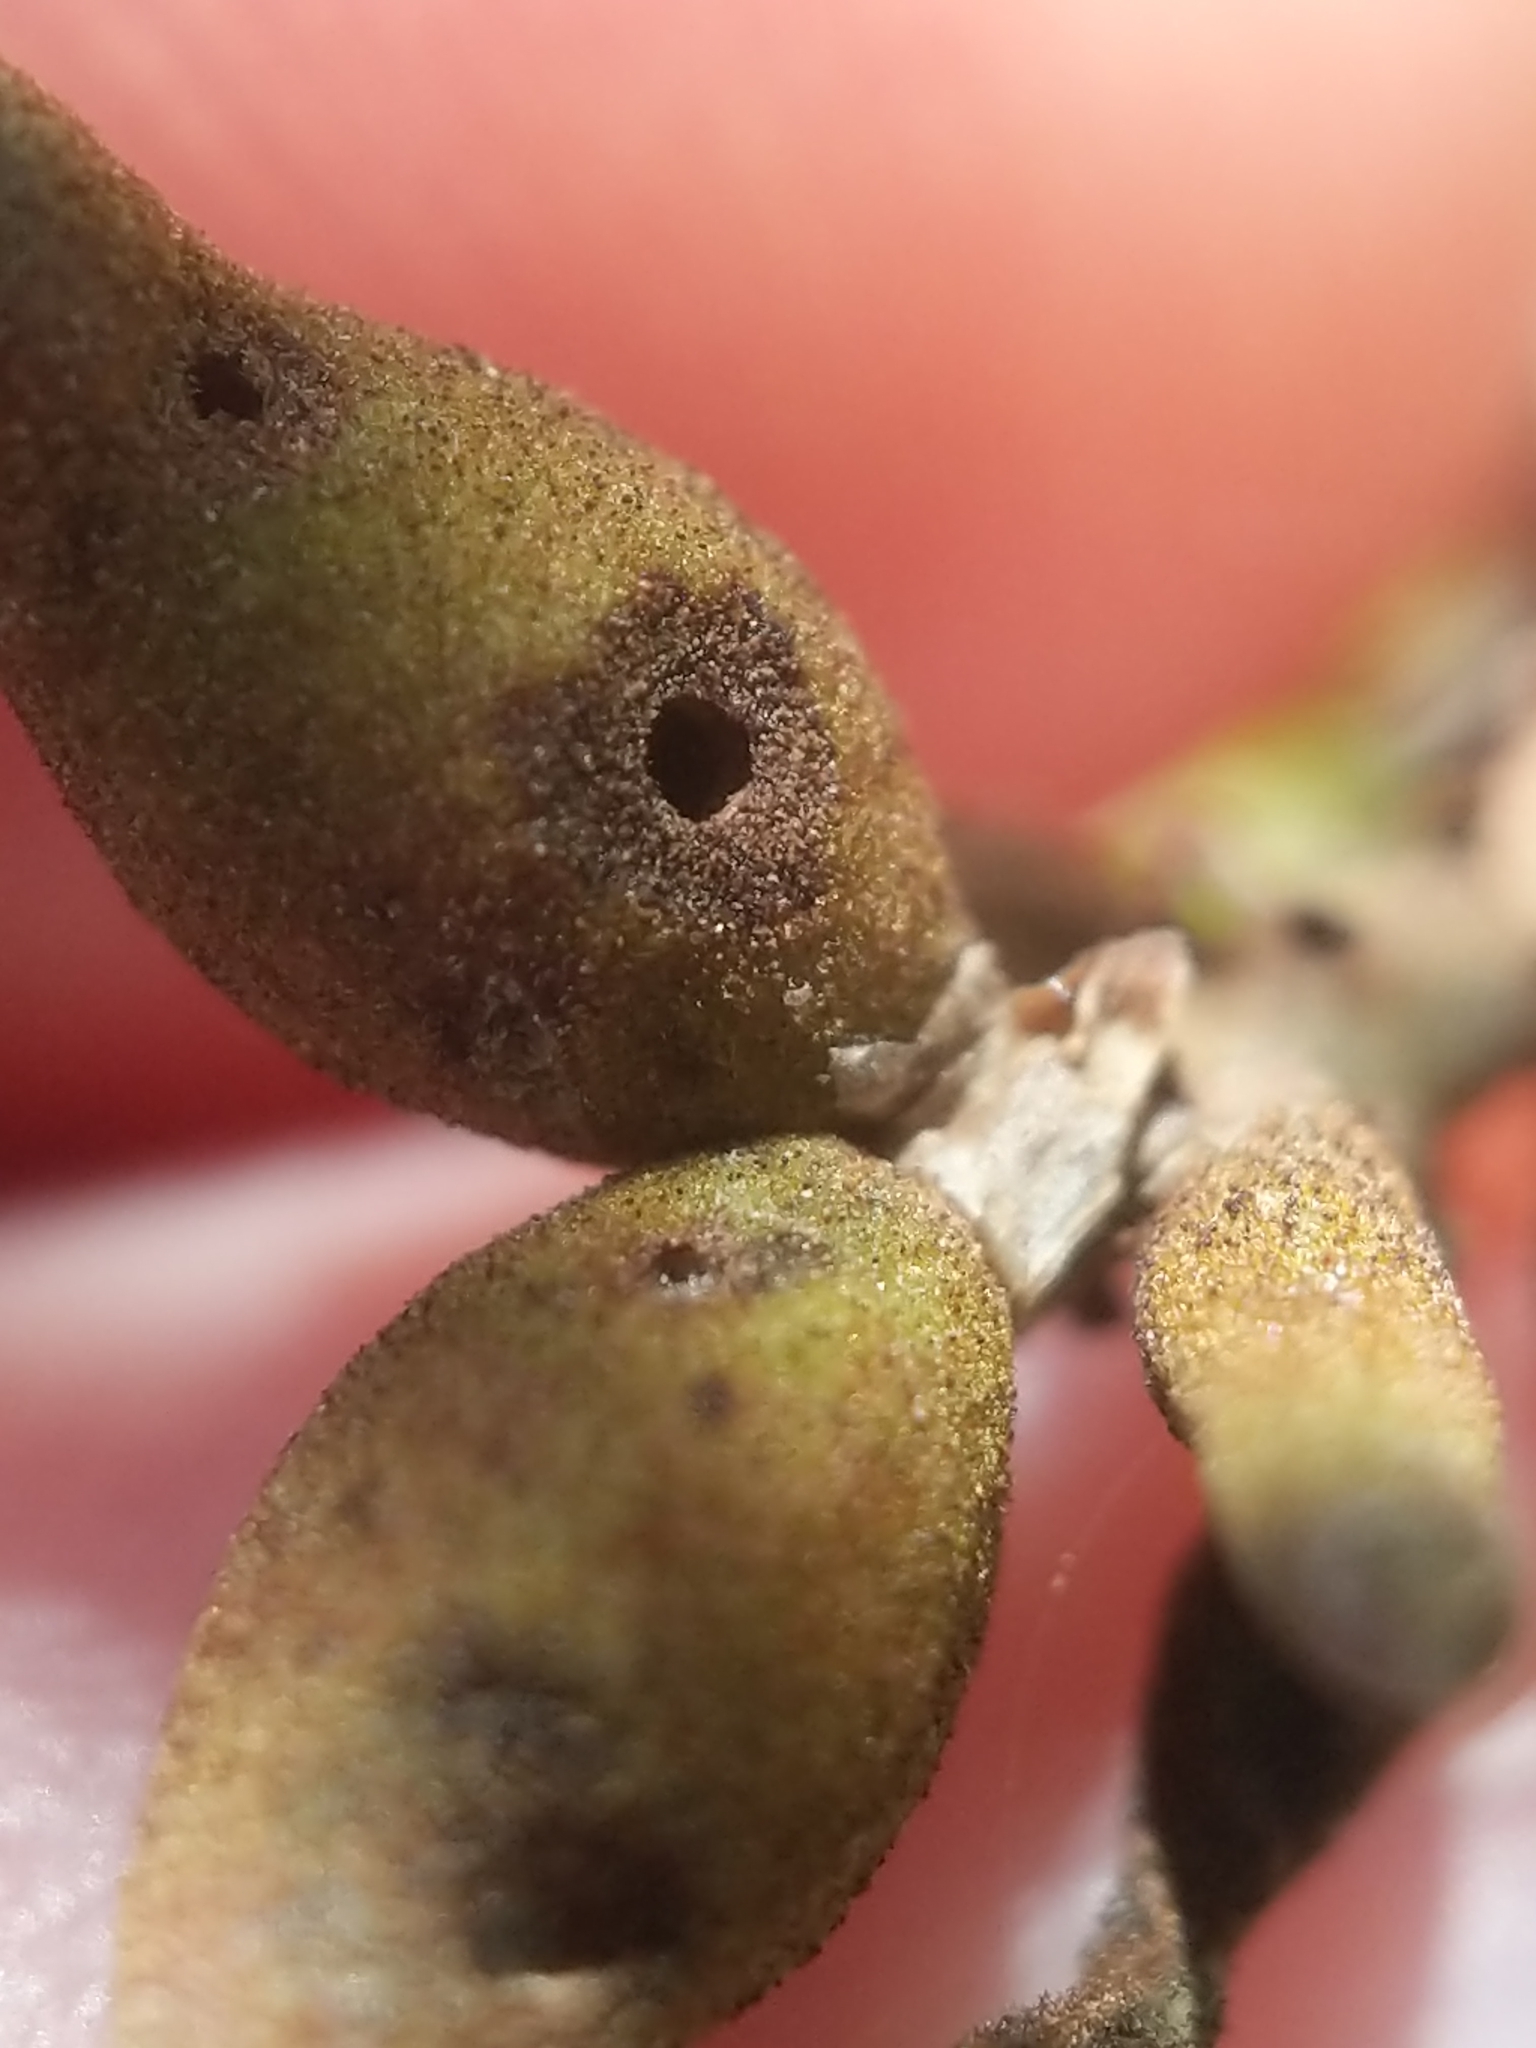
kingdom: Animalia
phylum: Arthropoda
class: Insecta
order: Coleoptera
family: Chrysomelidae
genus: Merobruchus
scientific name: Merobruchus major
